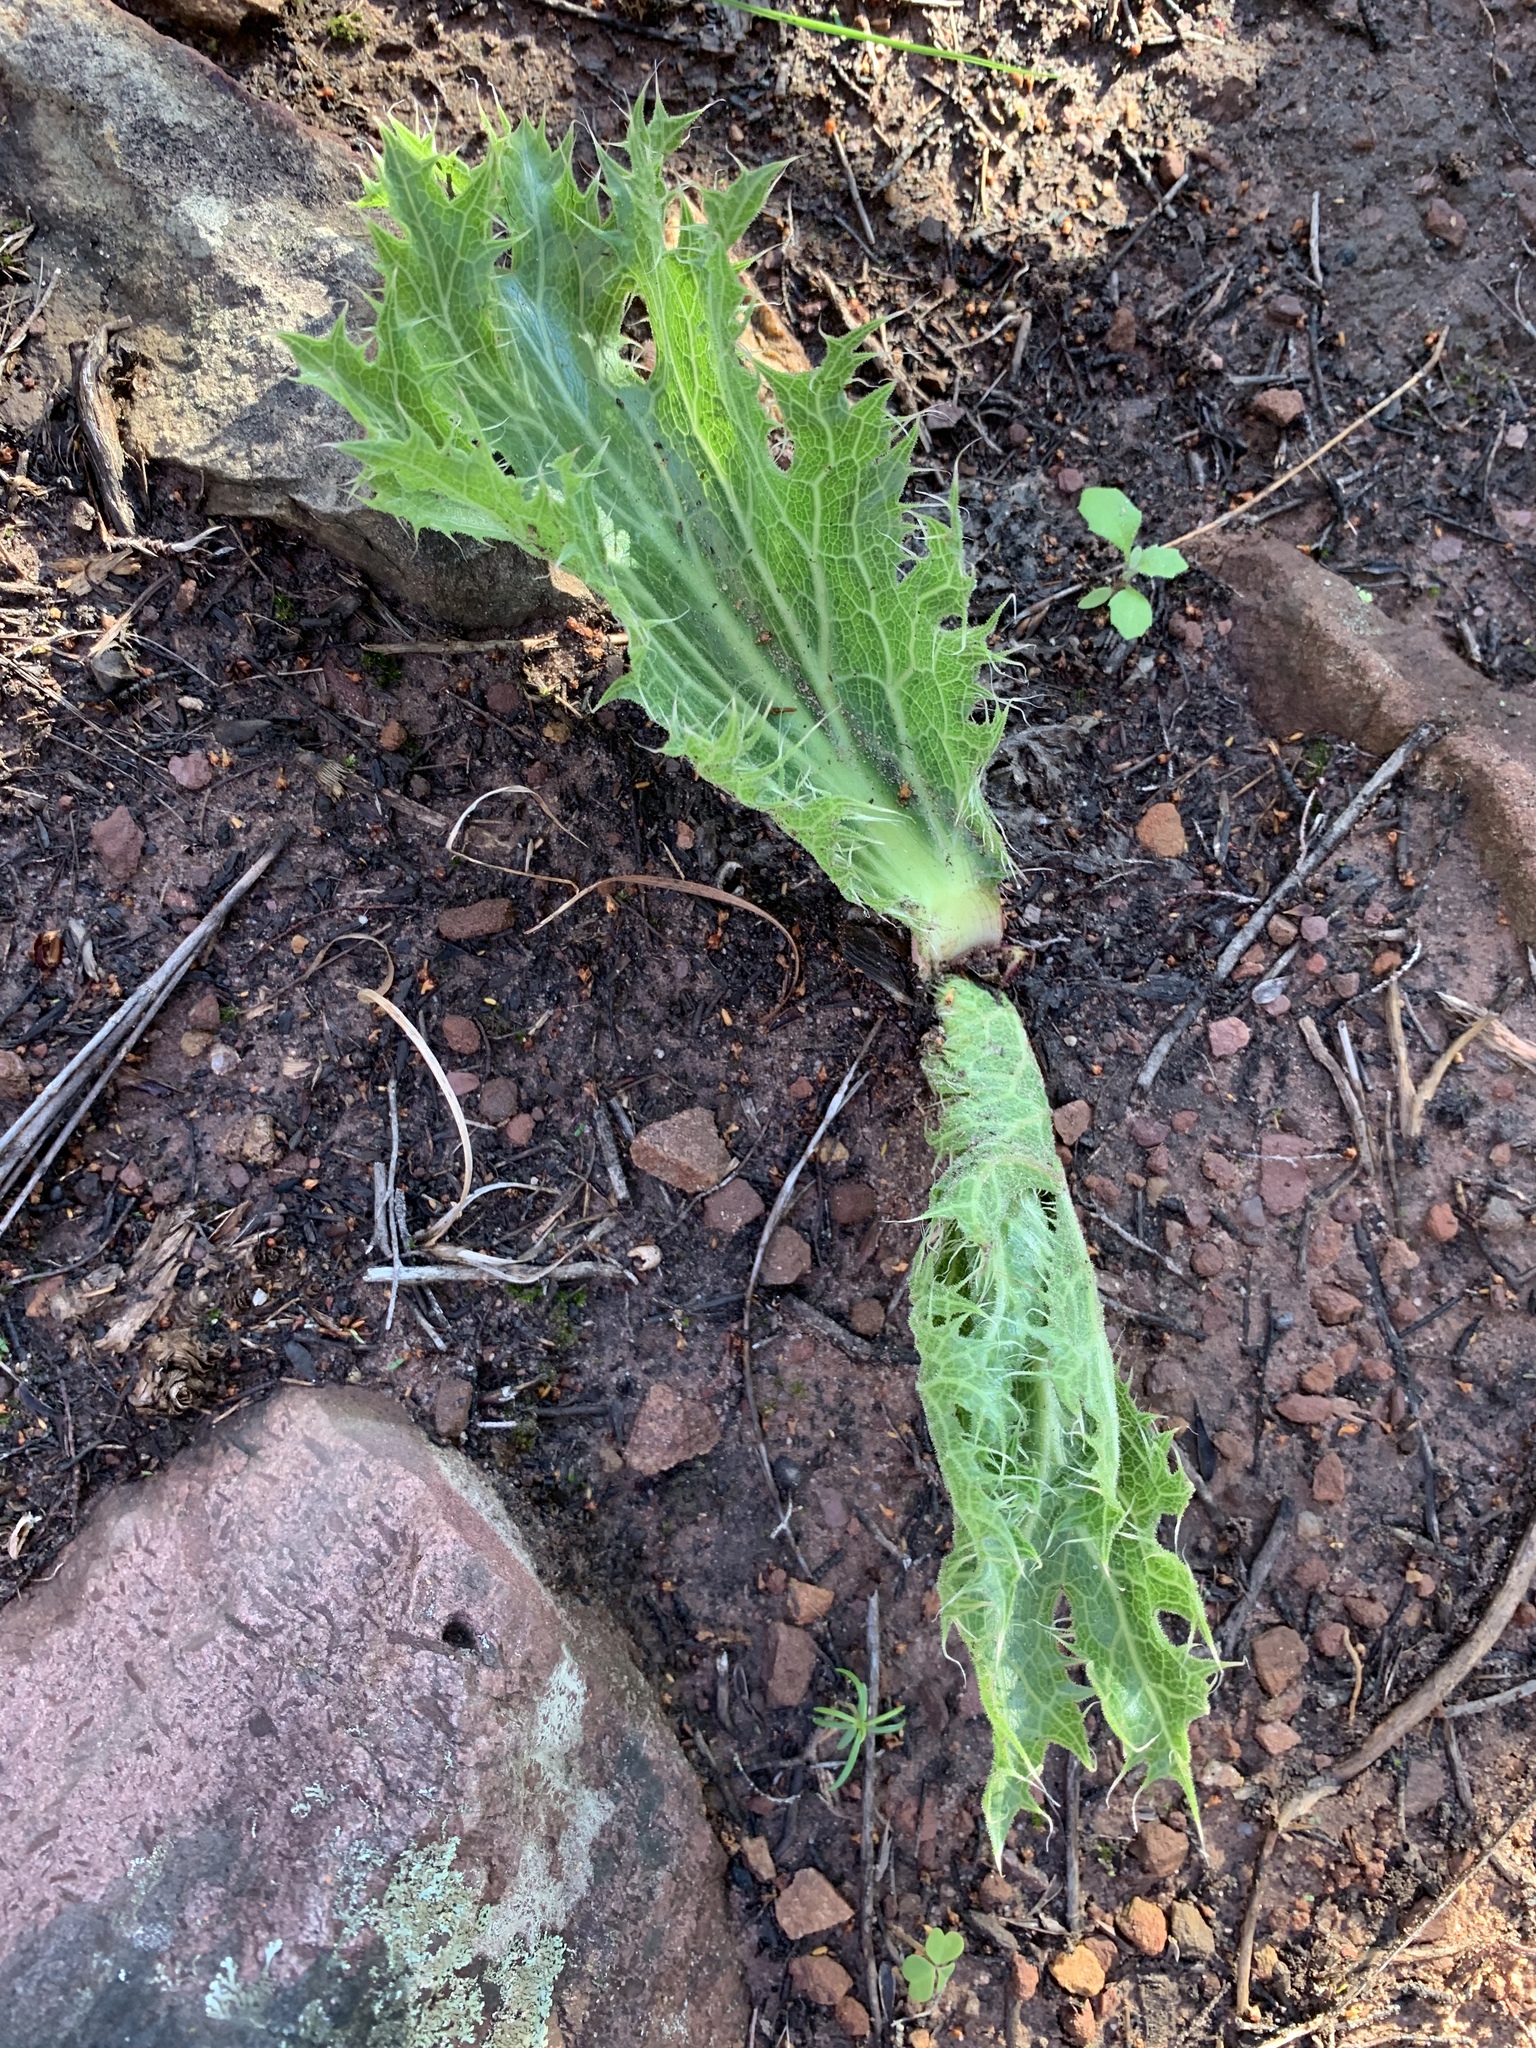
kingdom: Plantae
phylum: Tracheophyta
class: Magnoliopsida
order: Apiales
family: Apiaceae
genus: Lichtensteinia
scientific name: Lichtensteinia lacera
